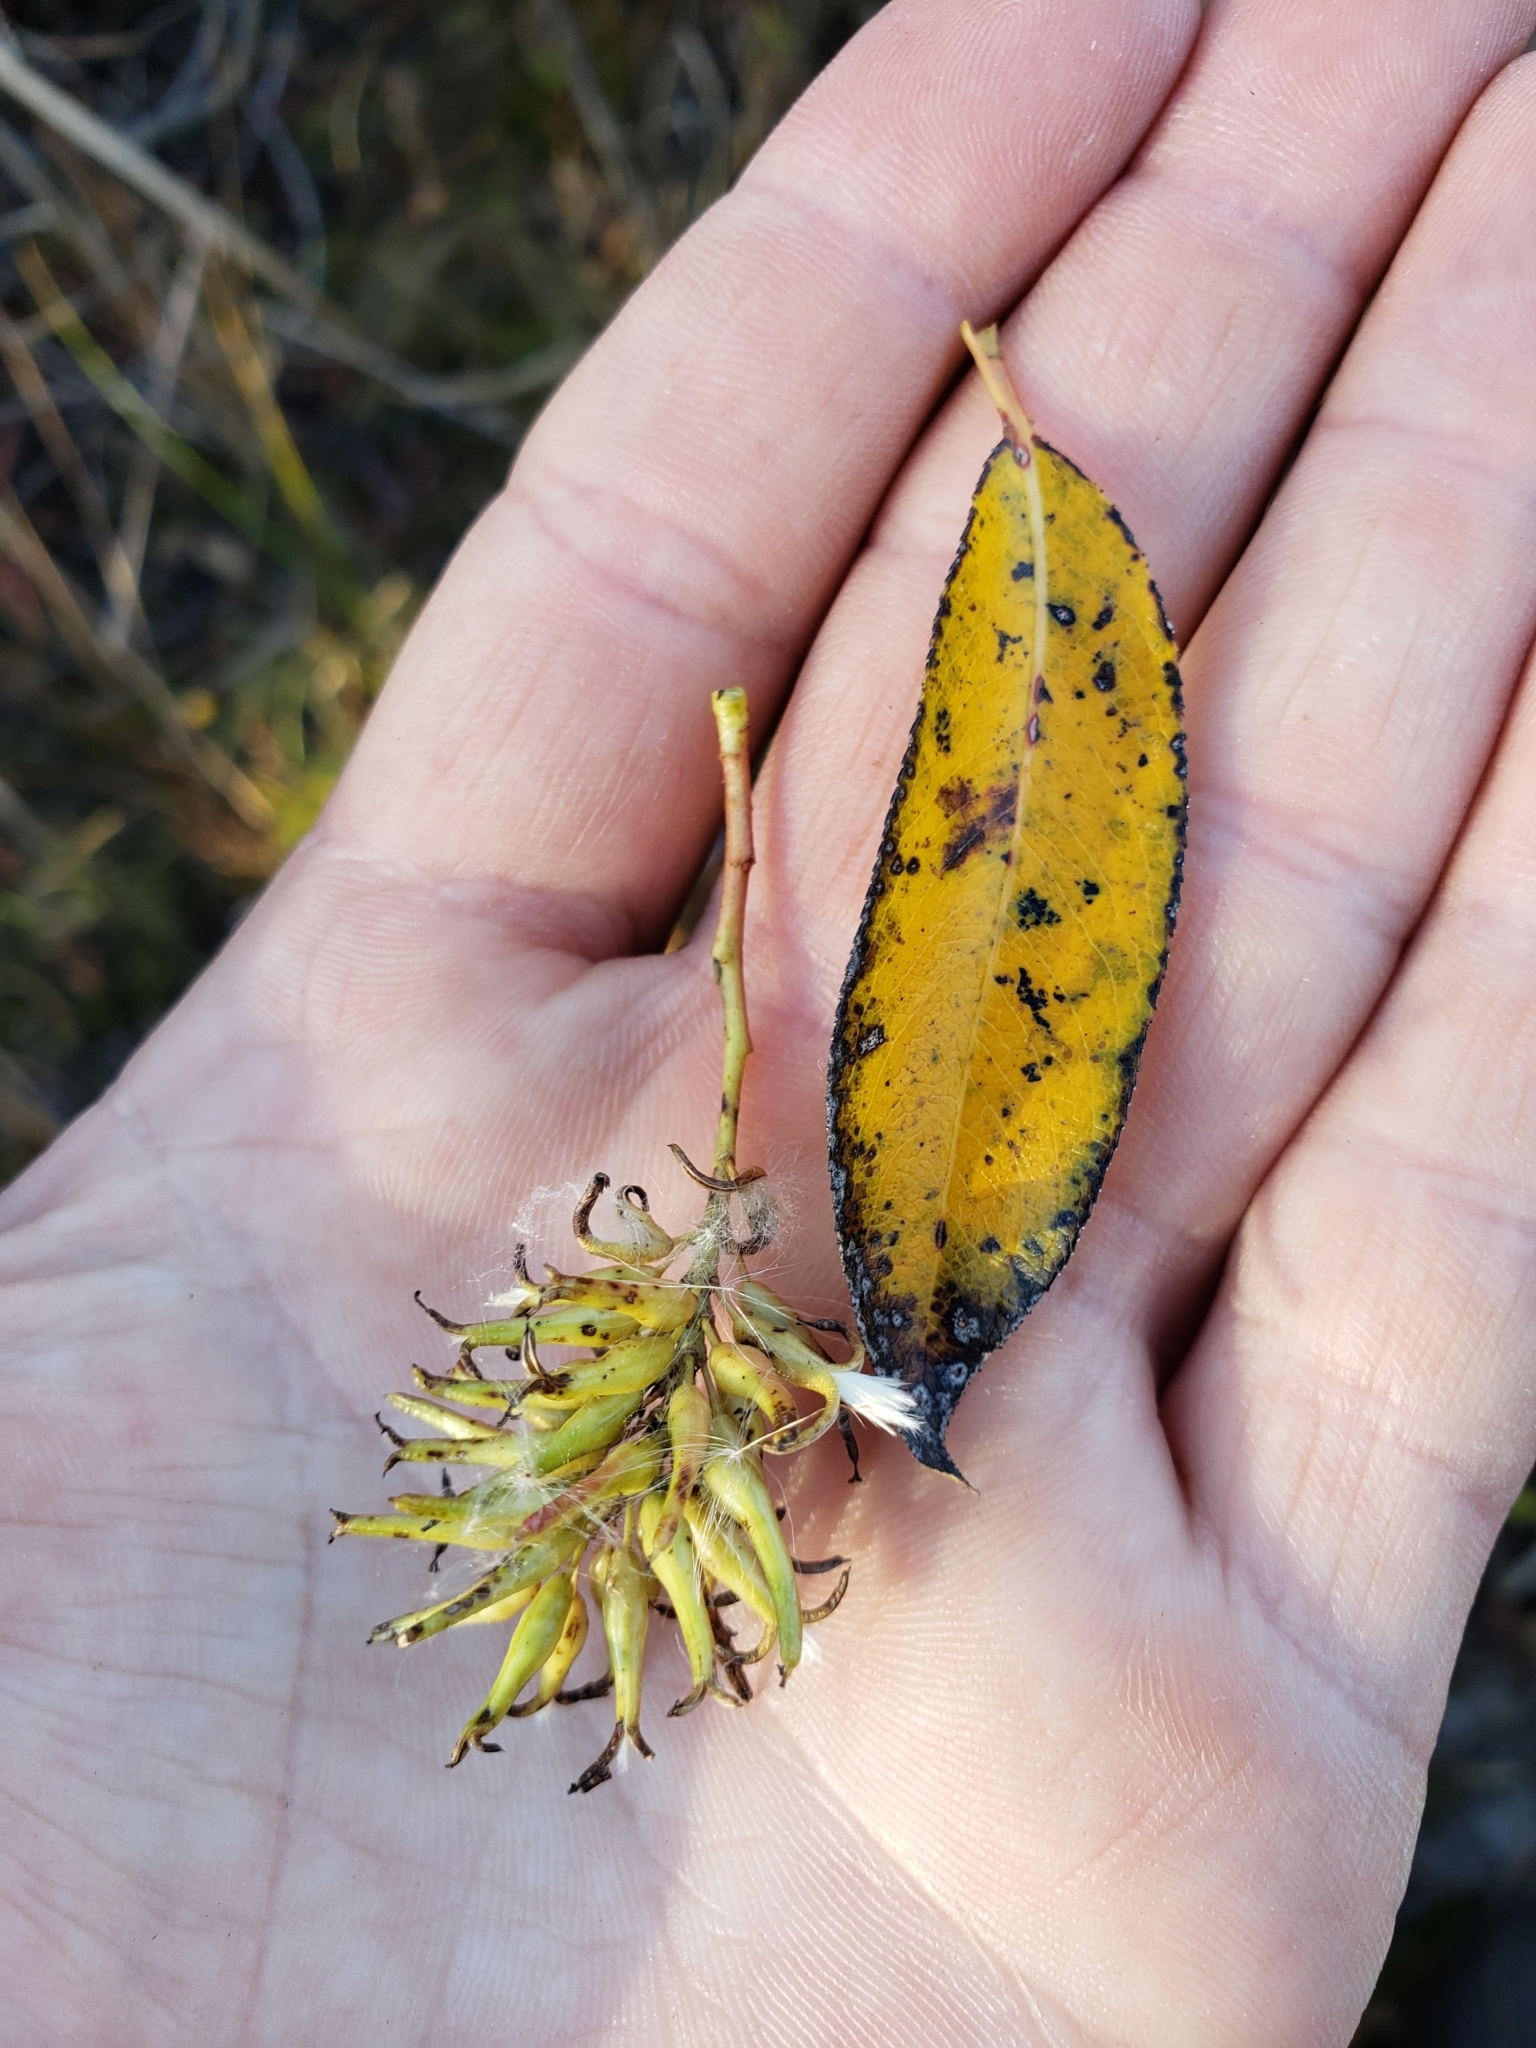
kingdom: Plantae
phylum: Tracheophyta
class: Magnoliopsida
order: Malpighiales
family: Salicaceae
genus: Salix
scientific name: Salix serissima
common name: Autumn willow
